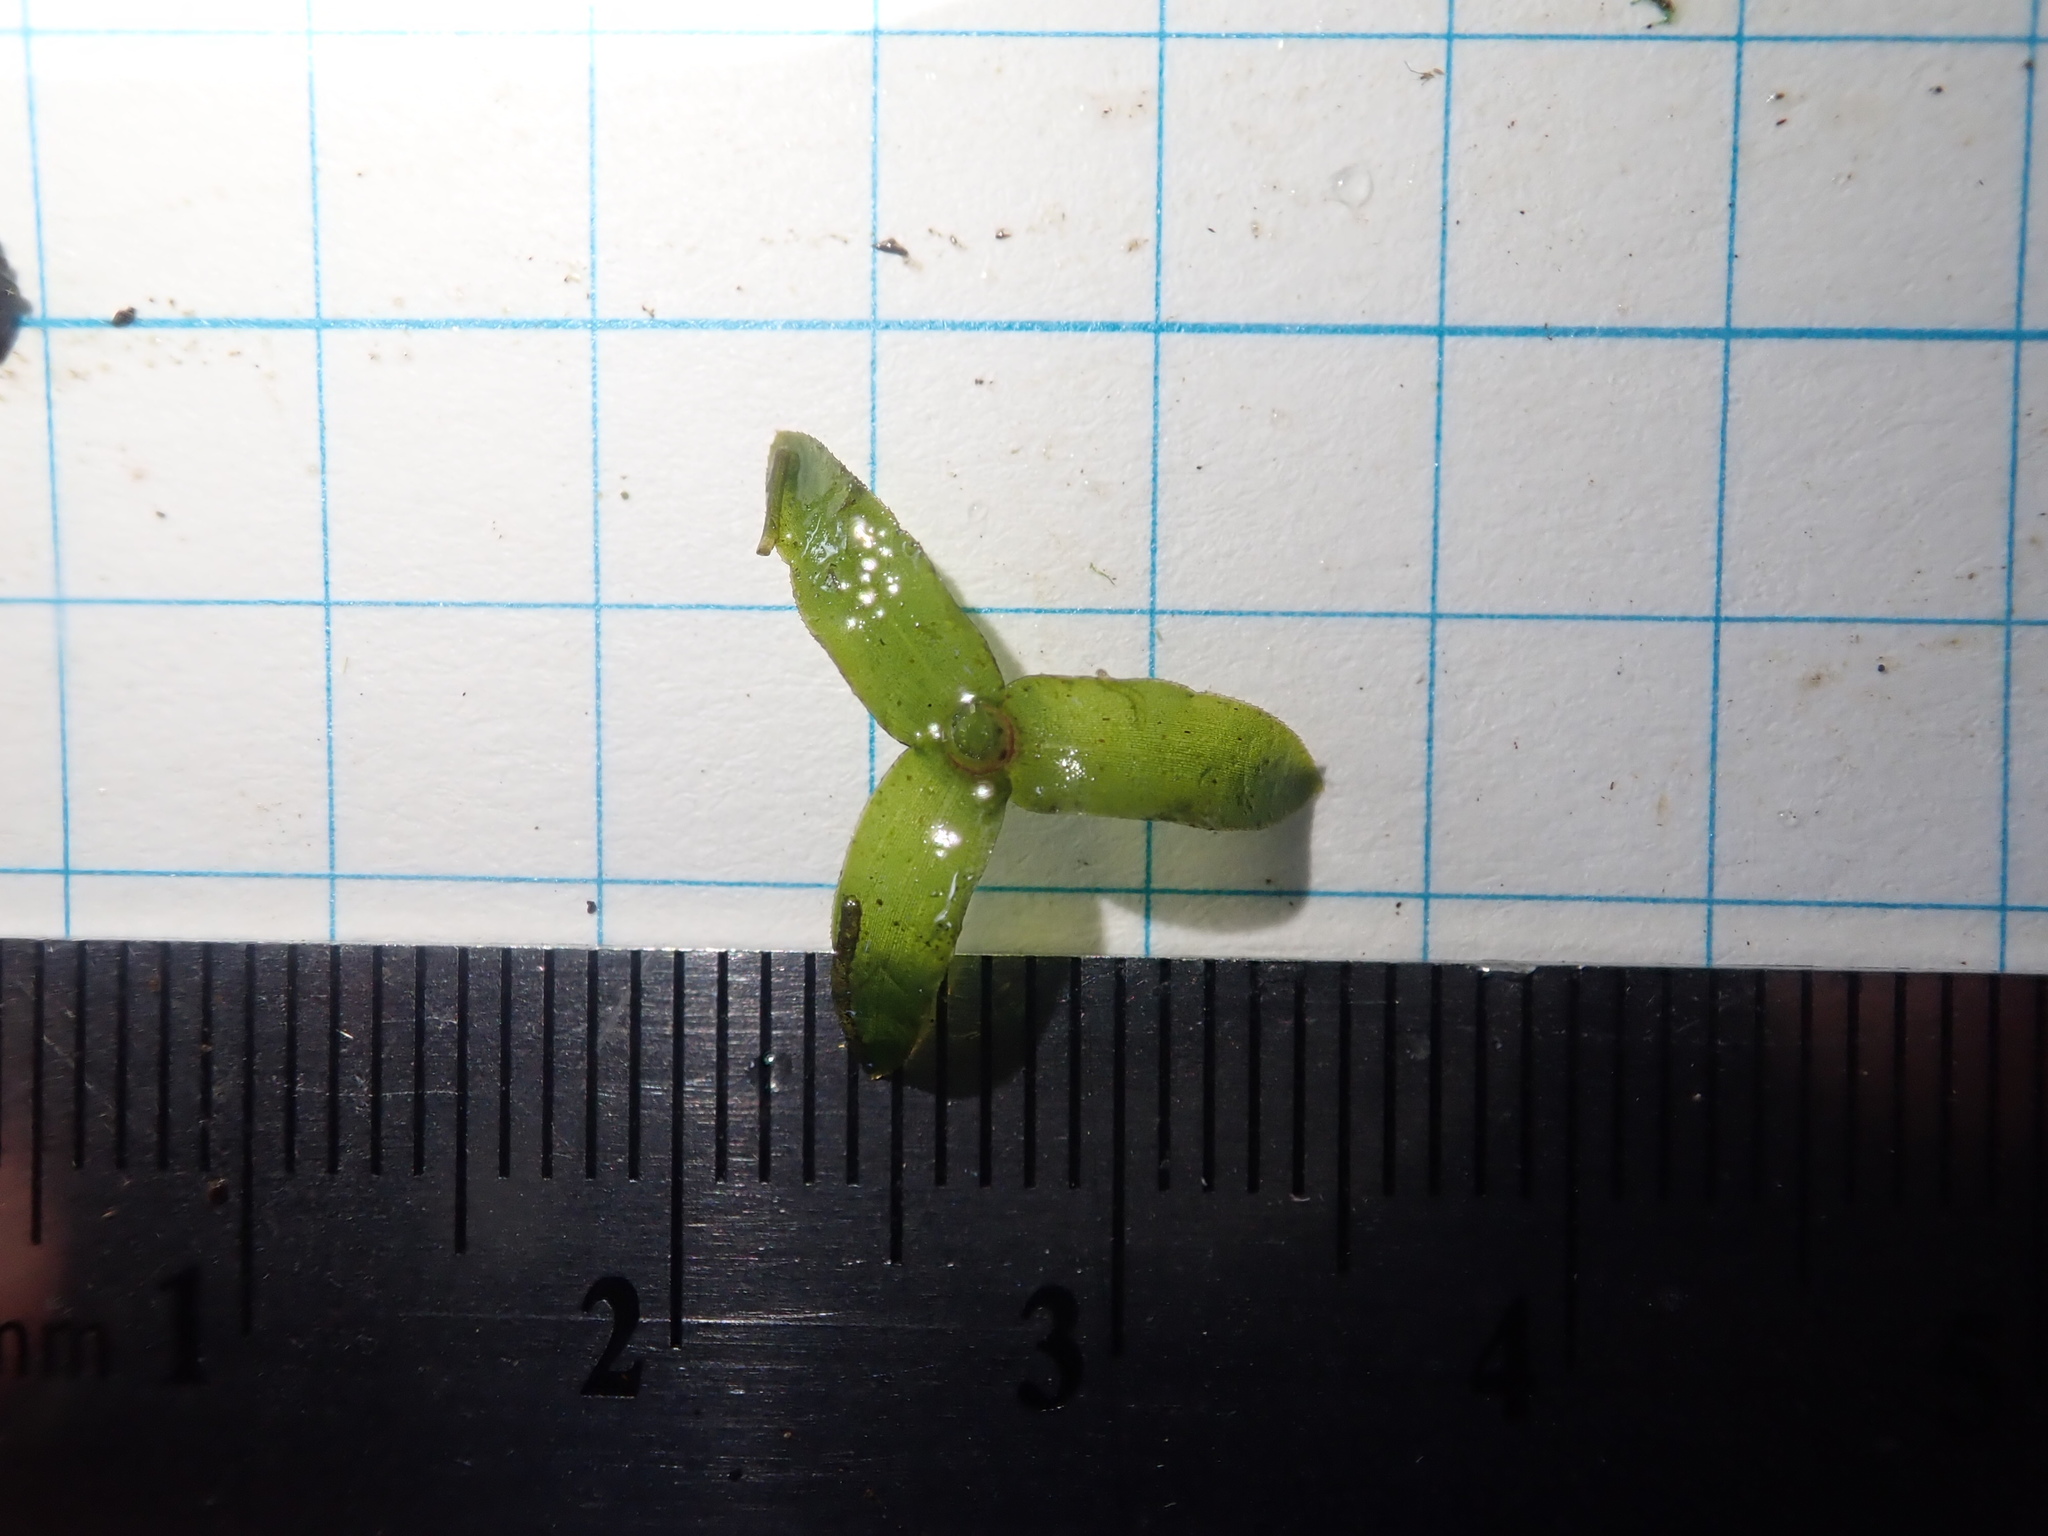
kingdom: Plantae
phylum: Tracheophyta
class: Liliopsida
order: Alismatales
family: Hydrocharitaceae
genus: Elodea
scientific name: Elodea canadensis
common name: Canadian waterweed
